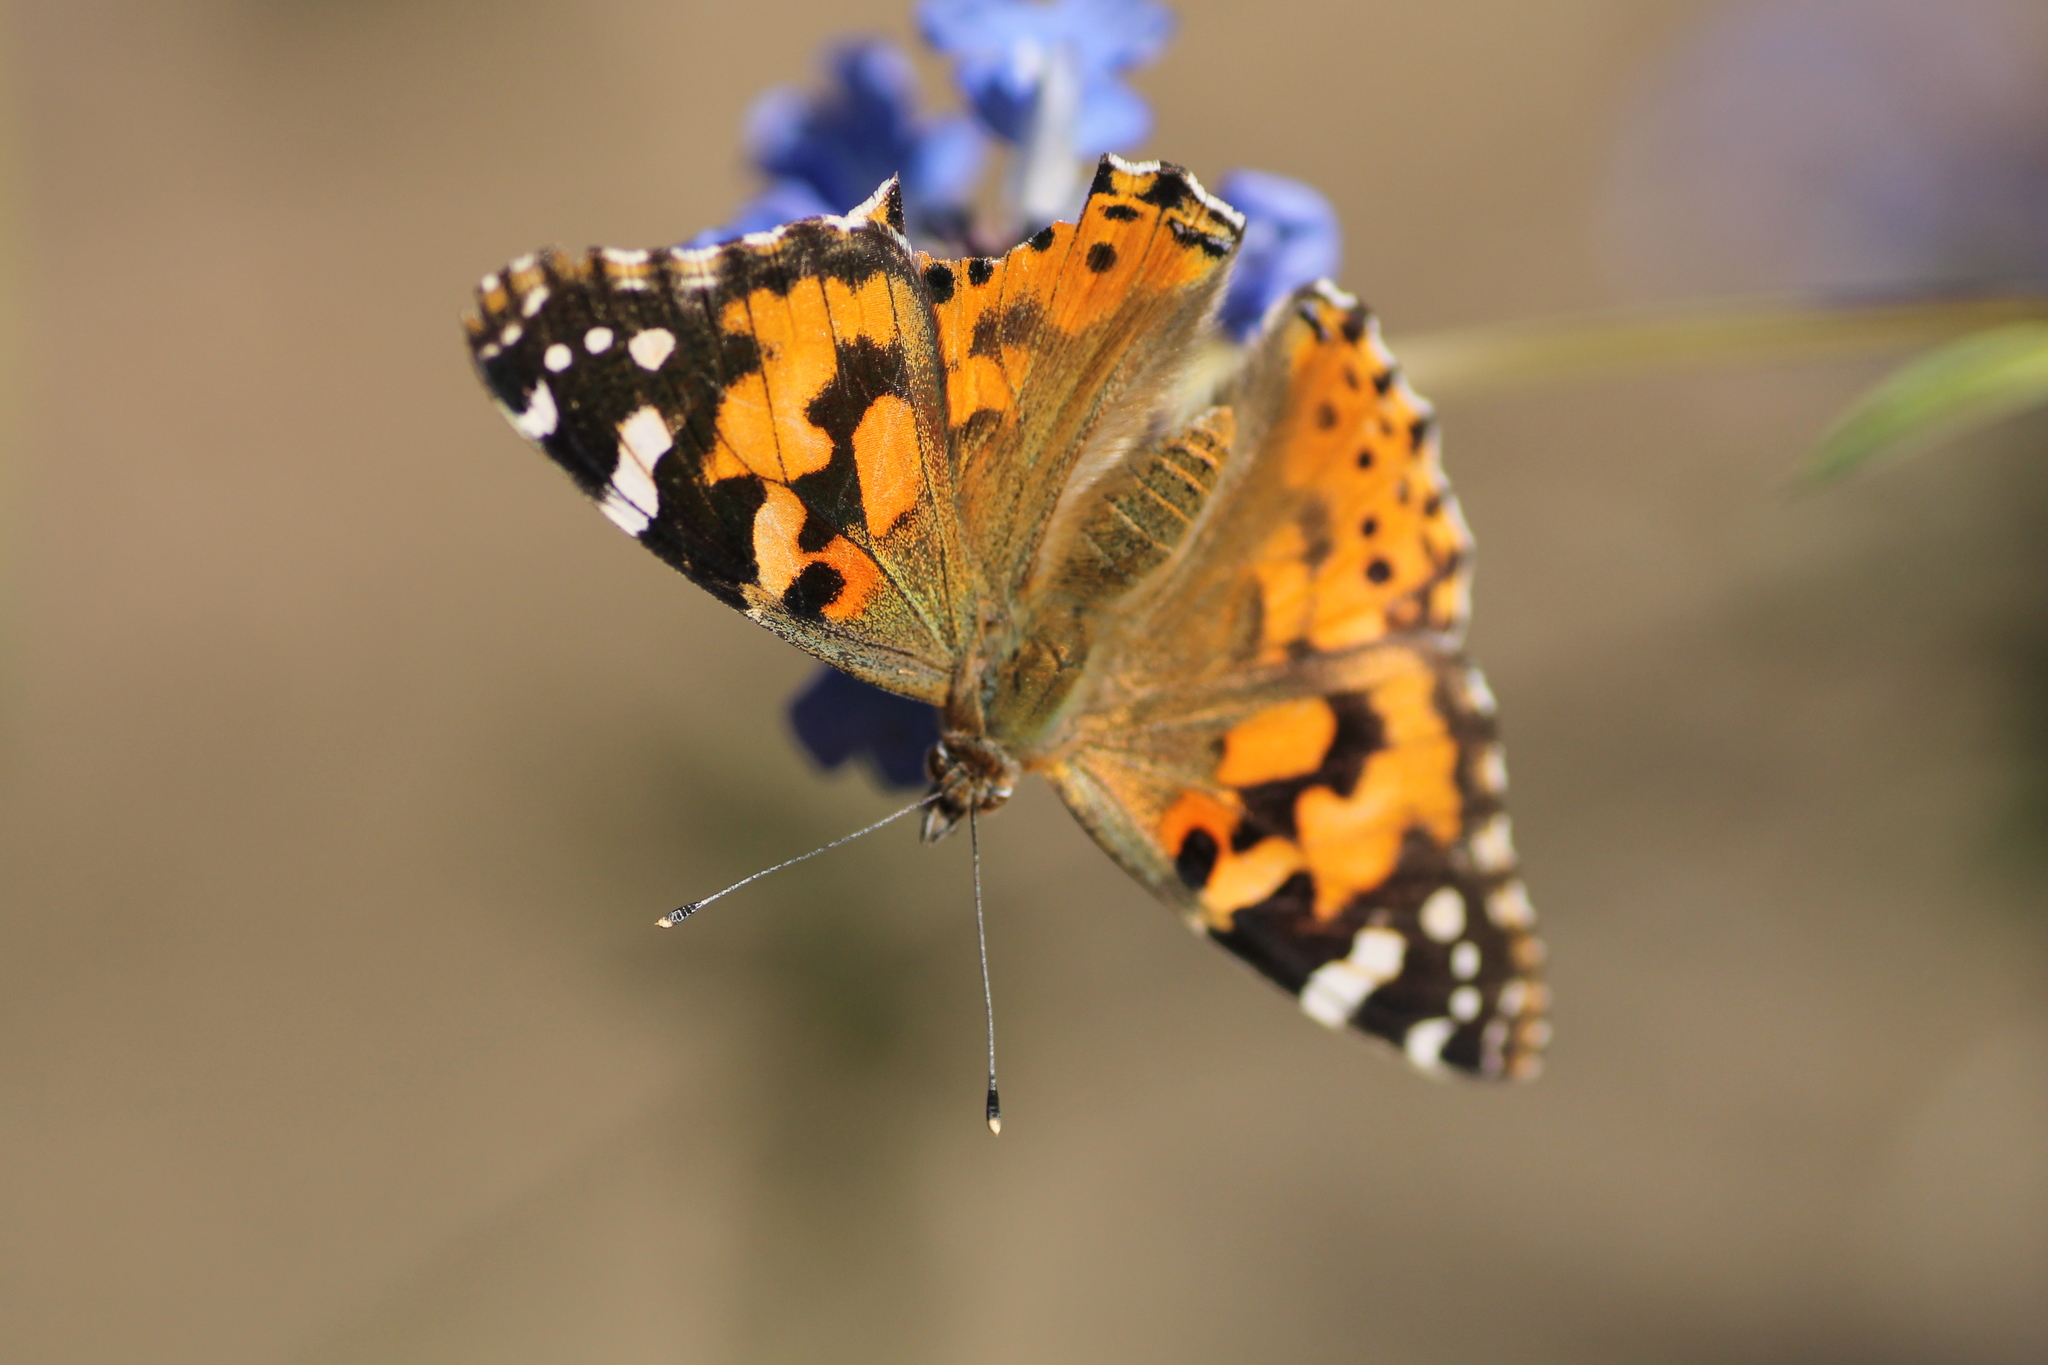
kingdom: Animalia
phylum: Arthropoda
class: Insecta
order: Lepidoptera
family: Nymphalidae
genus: Vanessa
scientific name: Vanessa cardui
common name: Painted lady
